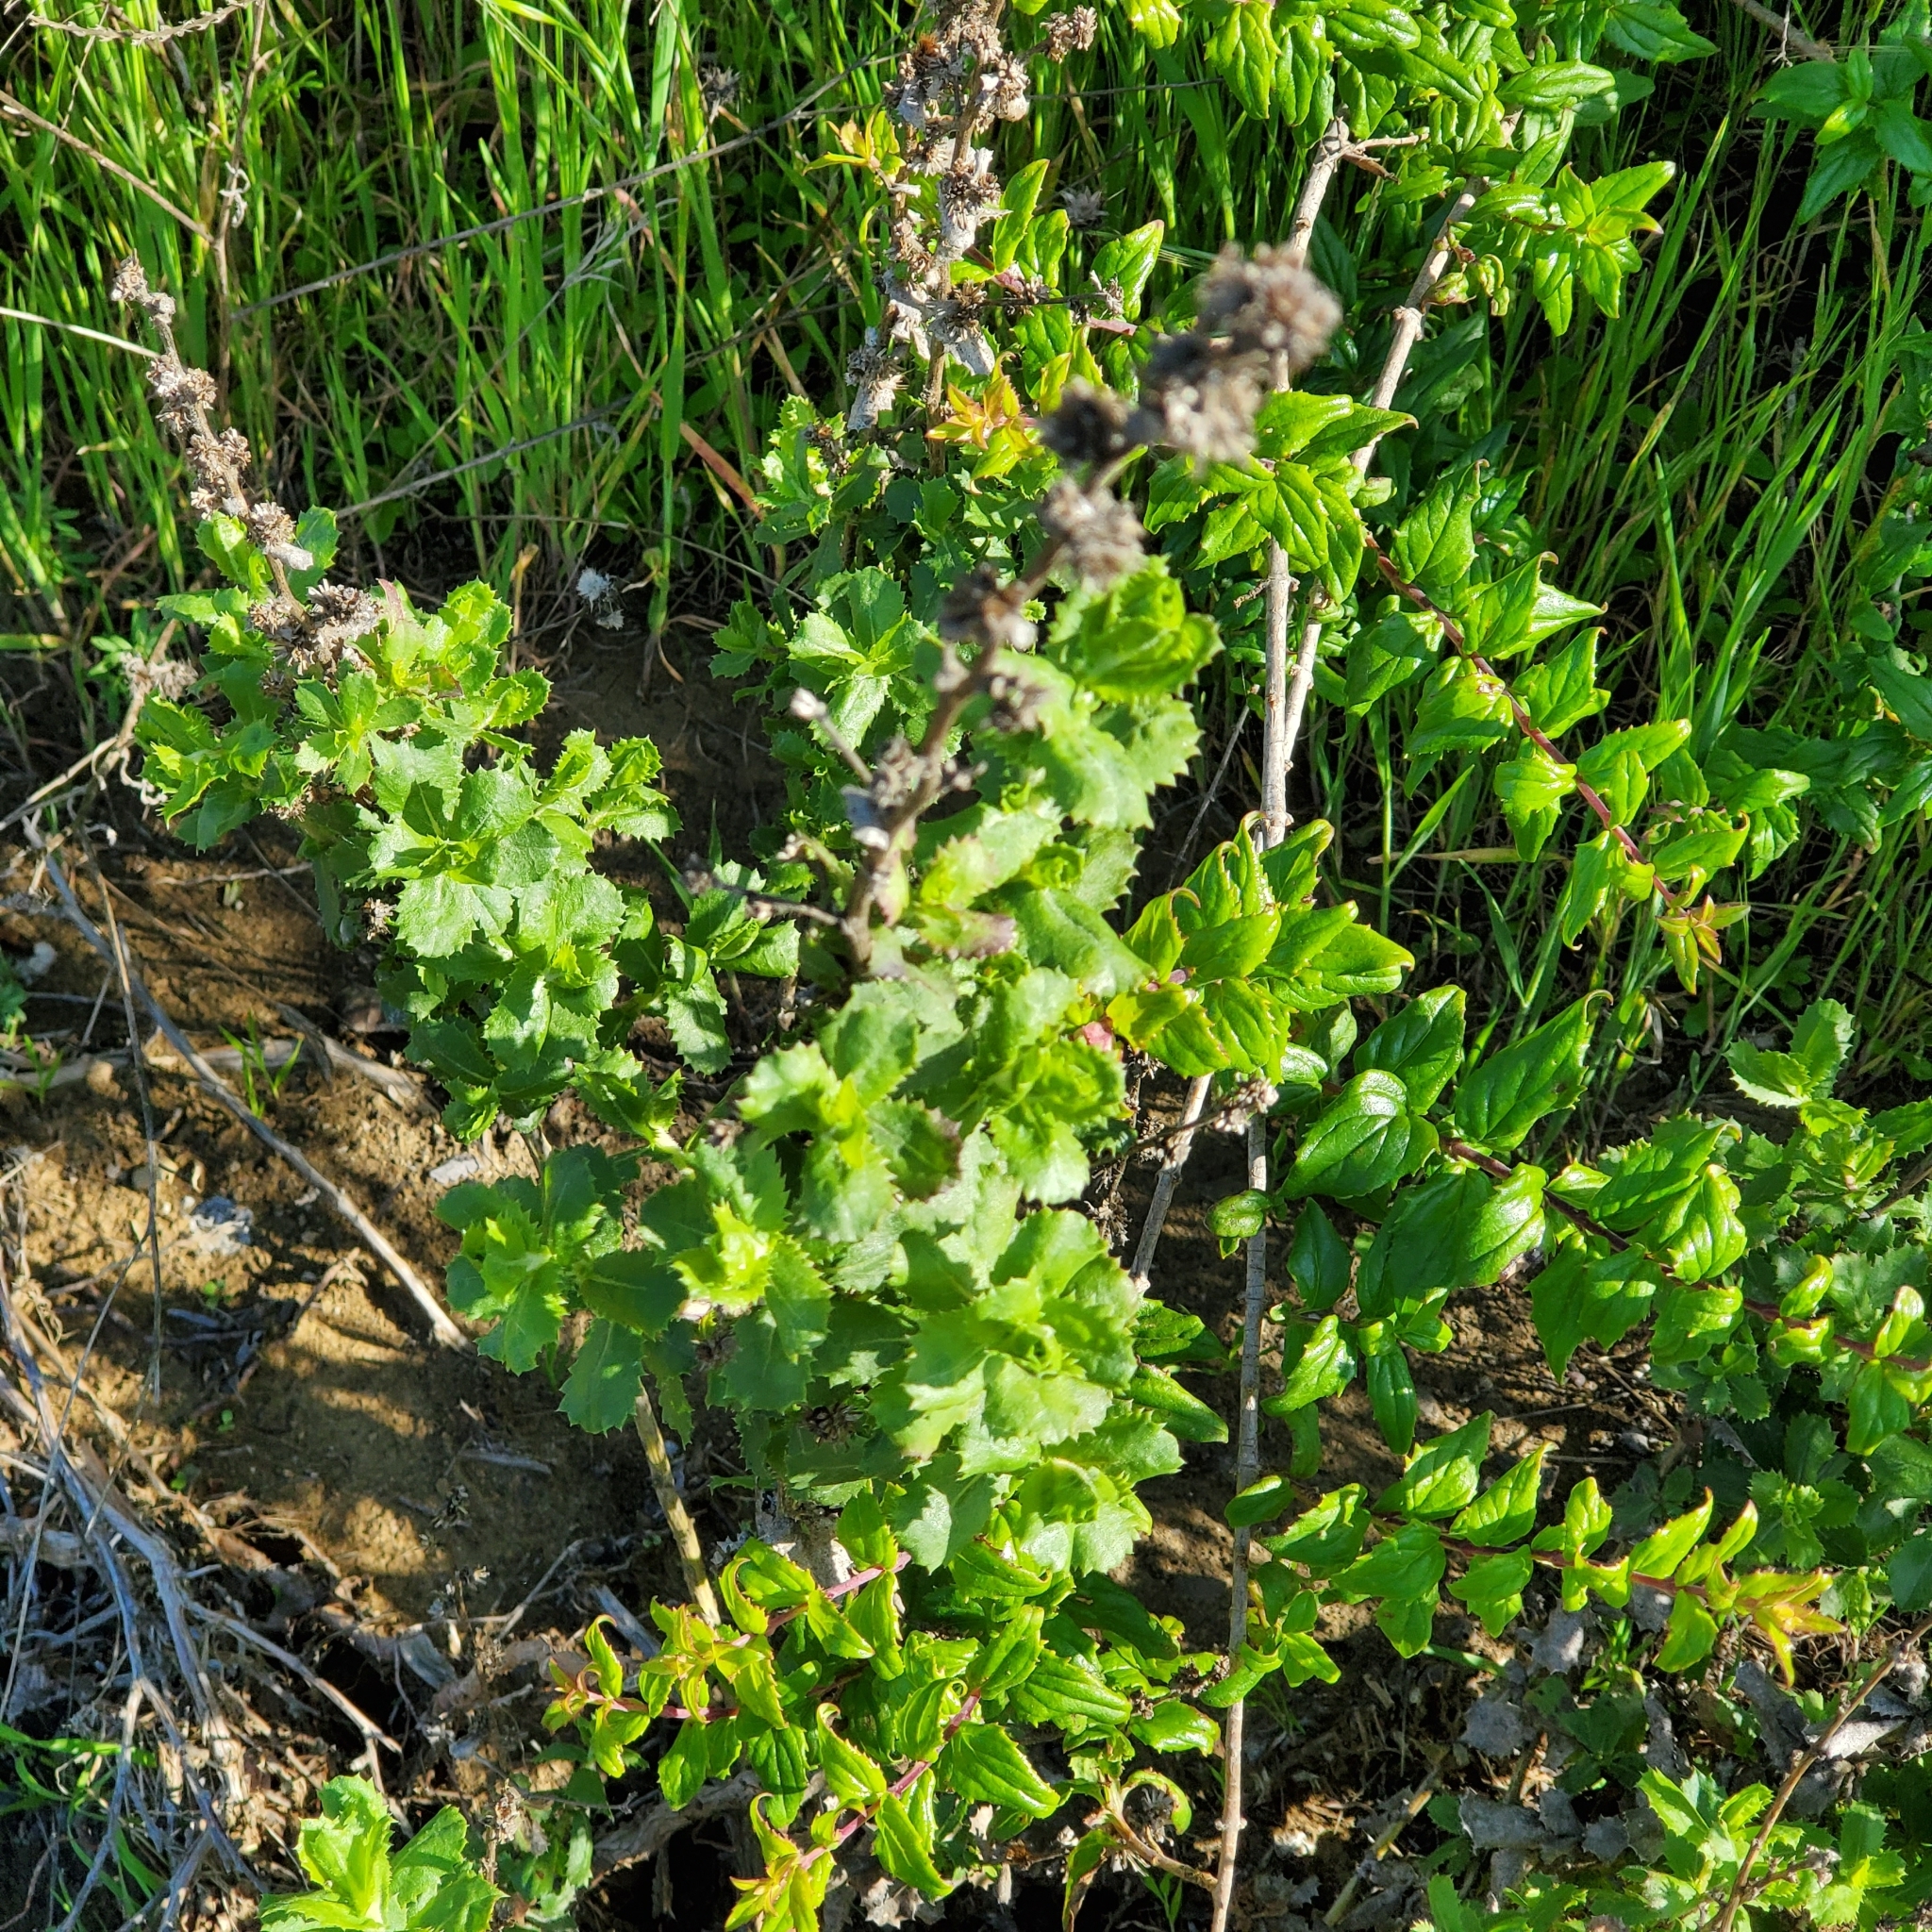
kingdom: Plantae
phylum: Tracheophyta
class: Magnoliopsida
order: Asterales
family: Asteraceae
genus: Hazardia
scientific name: Hazardia squarrosa
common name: Saw-tooth goldenbush
